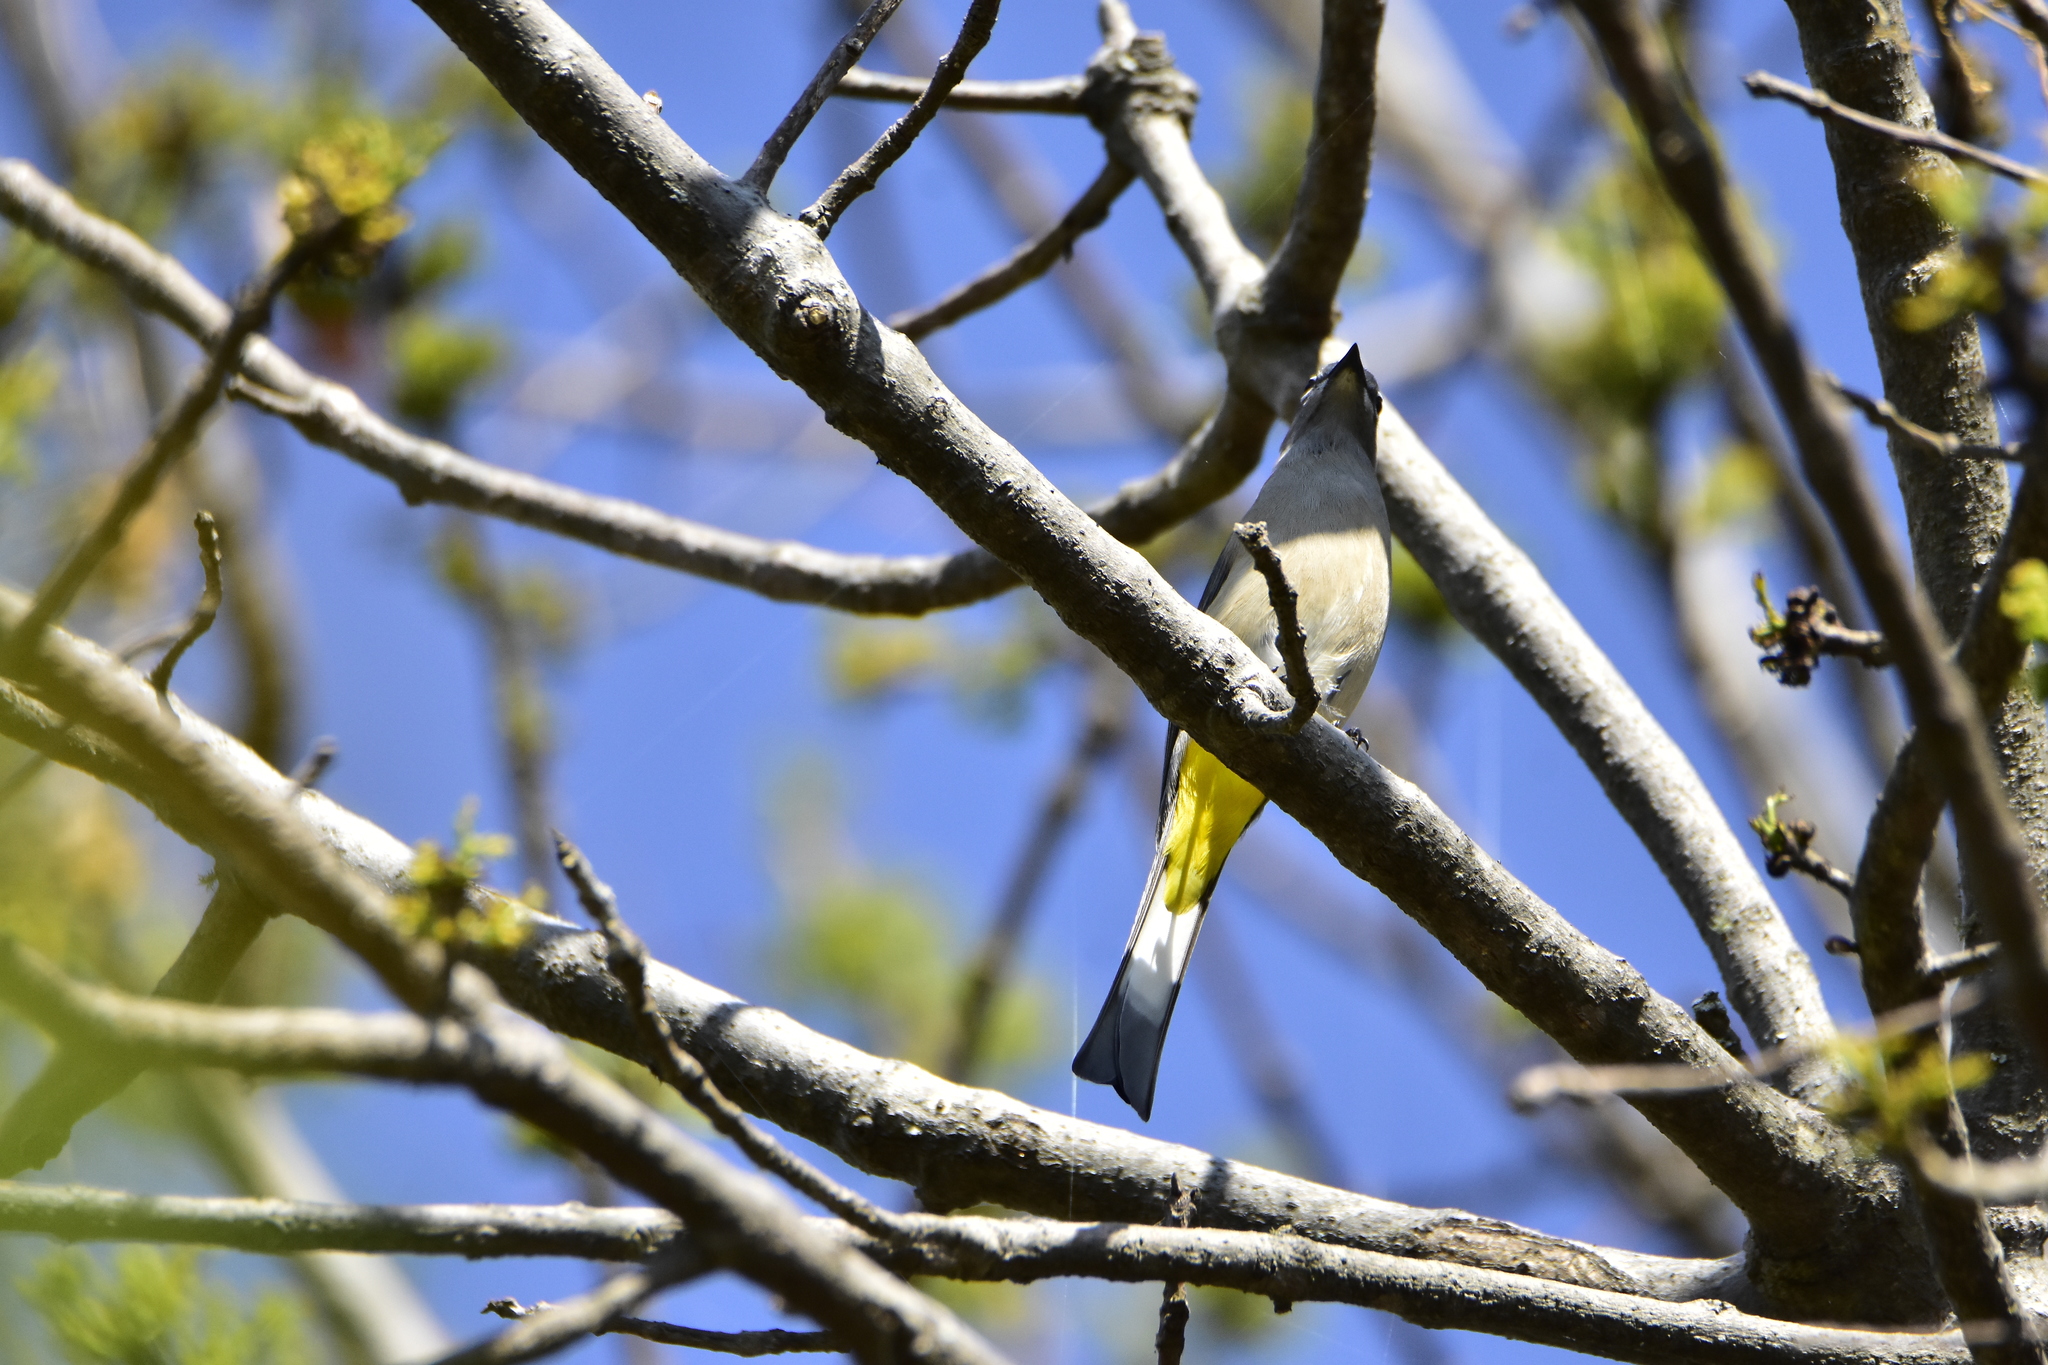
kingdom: Animalia
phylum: Chordata
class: Aves
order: Passeriformes
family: Ptilogonatidae
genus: Ptilogonys
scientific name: Ptilogonys cinereus
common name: Gray silky-flycatcher
